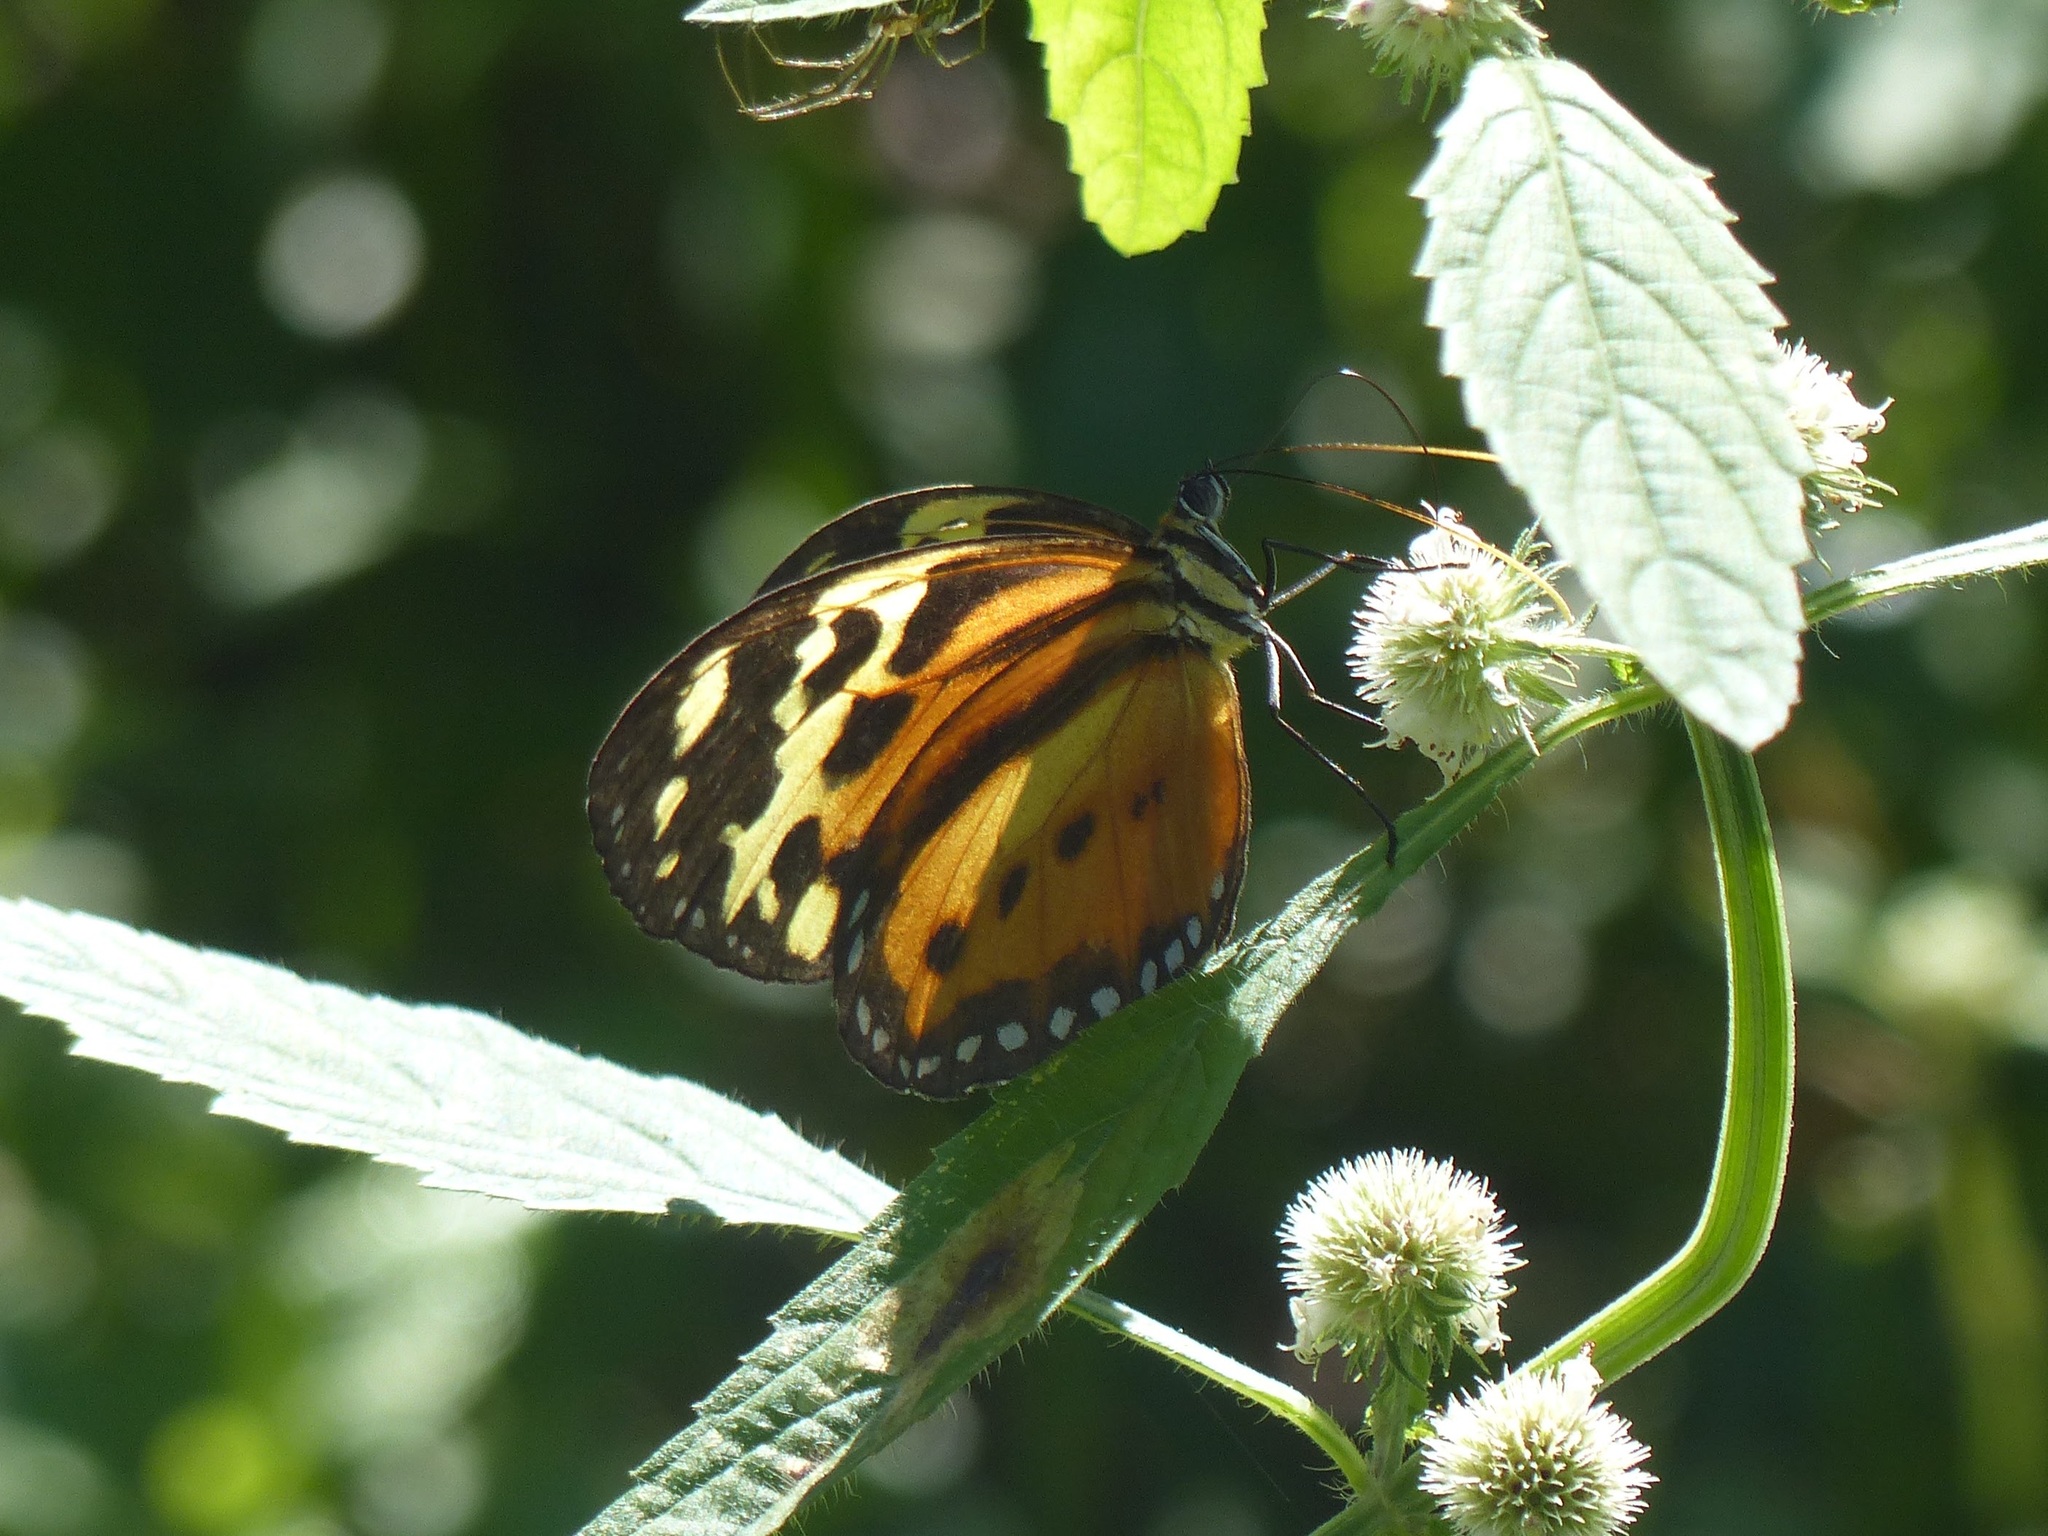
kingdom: Animalia
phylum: Arthropoda
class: Insecta
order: Lepidoptera
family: Nymphalidae
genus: Tithorea
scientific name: Tithorea harmonia
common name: Harmonia tigerwing
